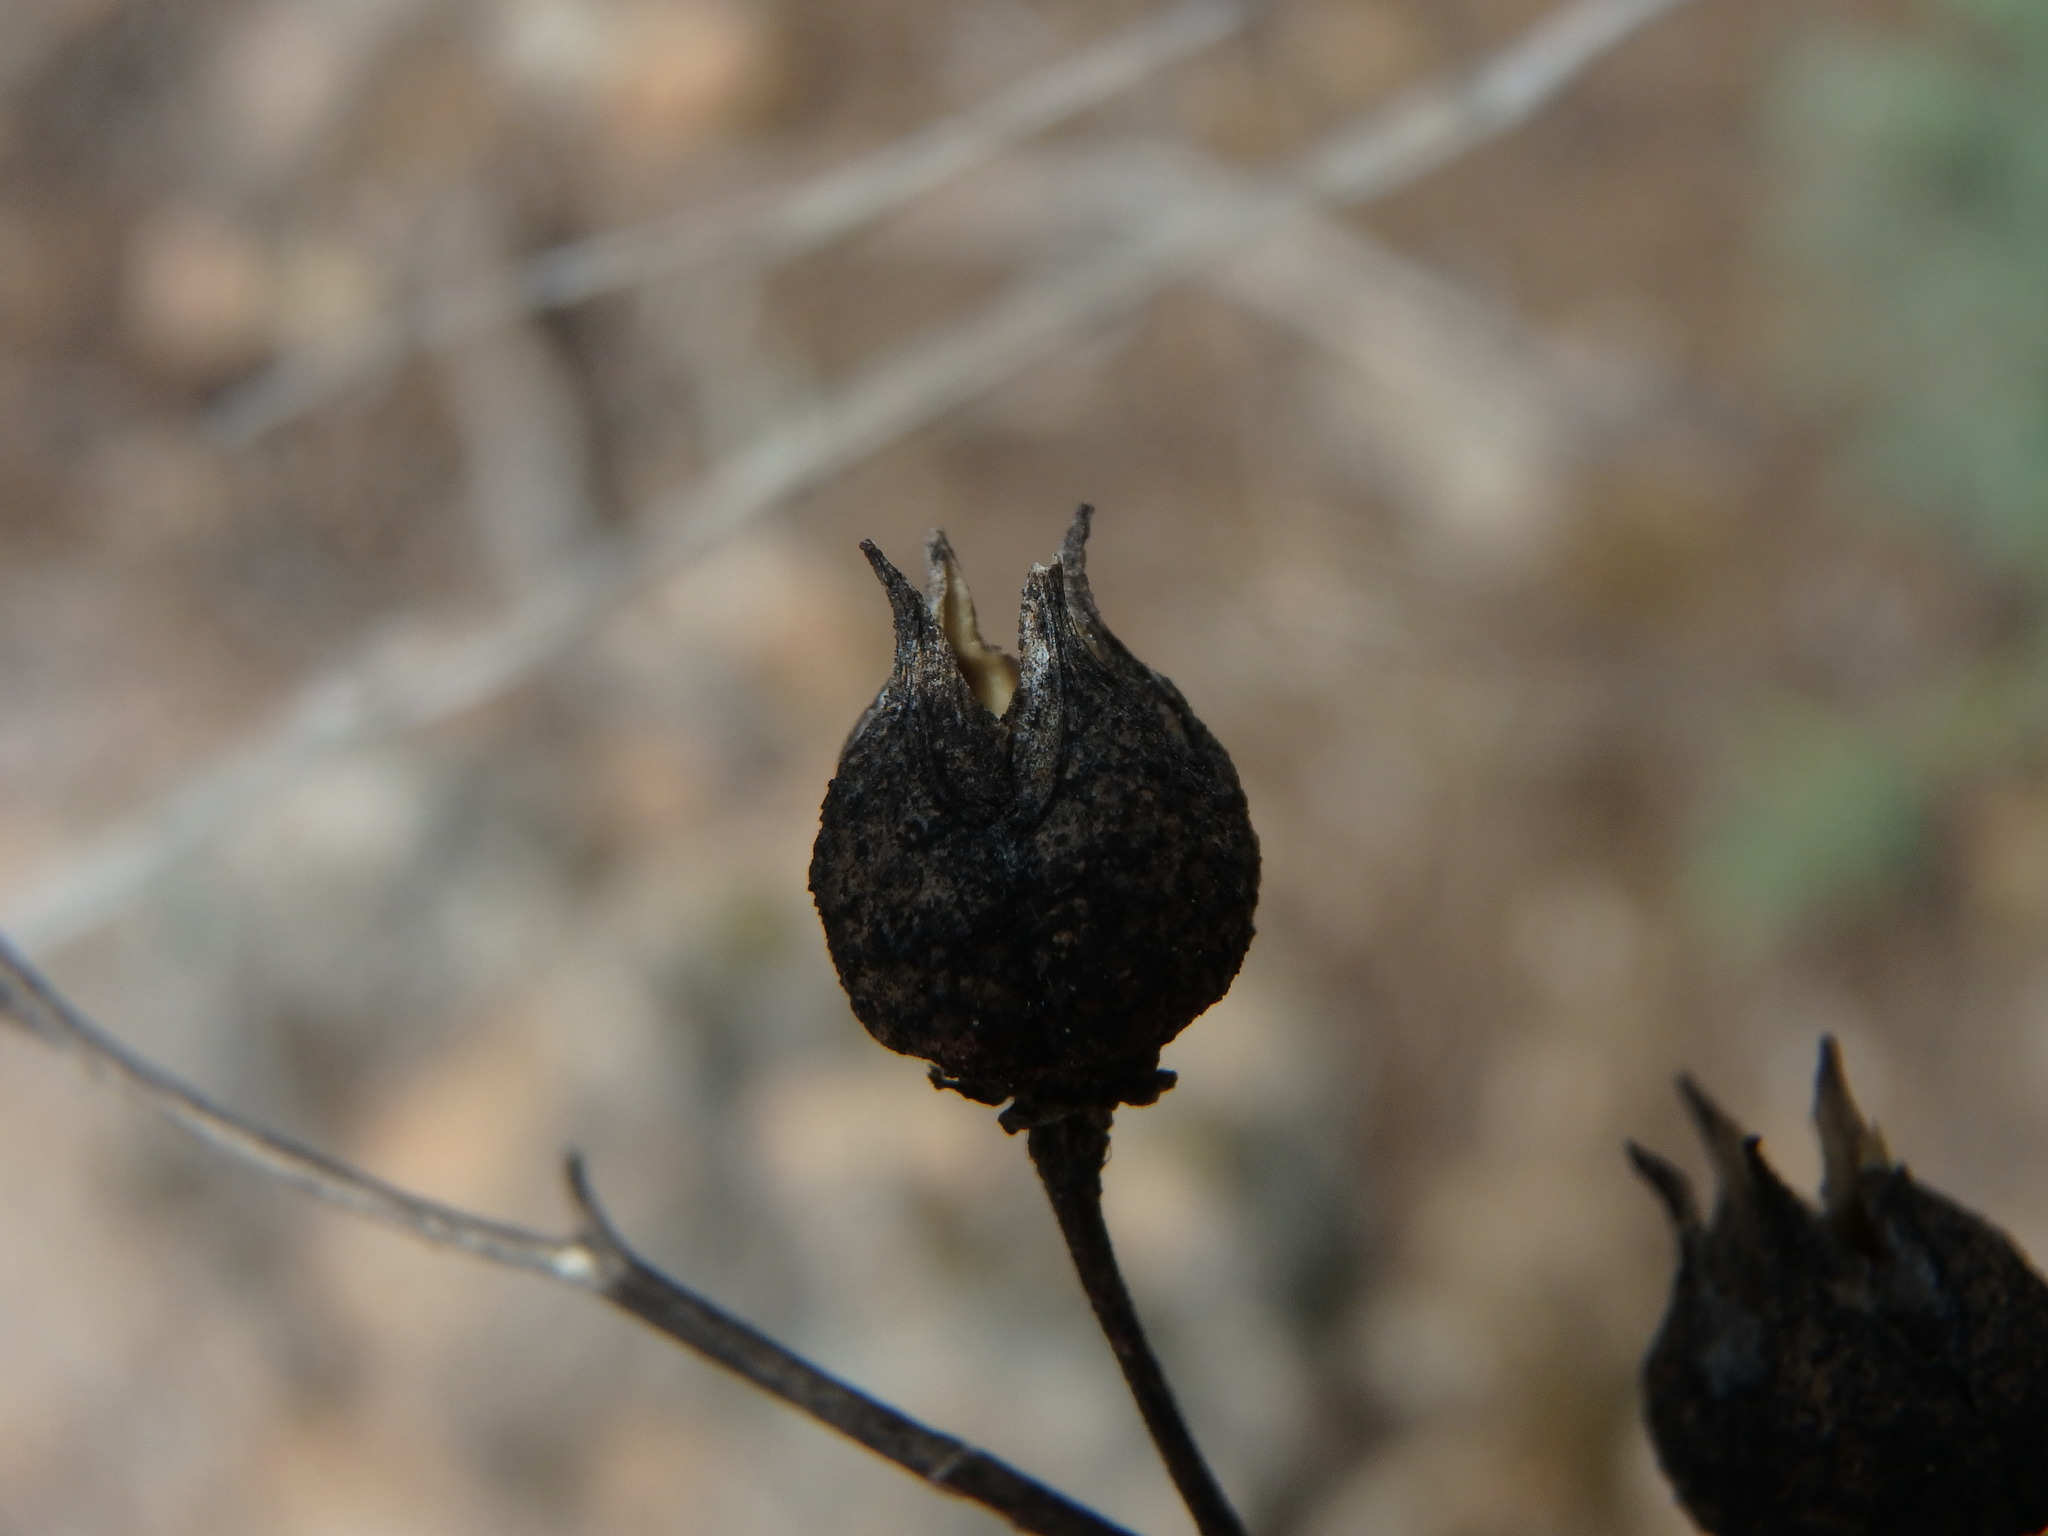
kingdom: Plantae
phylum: Tracheophyta
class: Magnoliopsida
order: Sapindales
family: Rutaceae
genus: Ruta
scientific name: Ruta chalepensis
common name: Fringed rue
